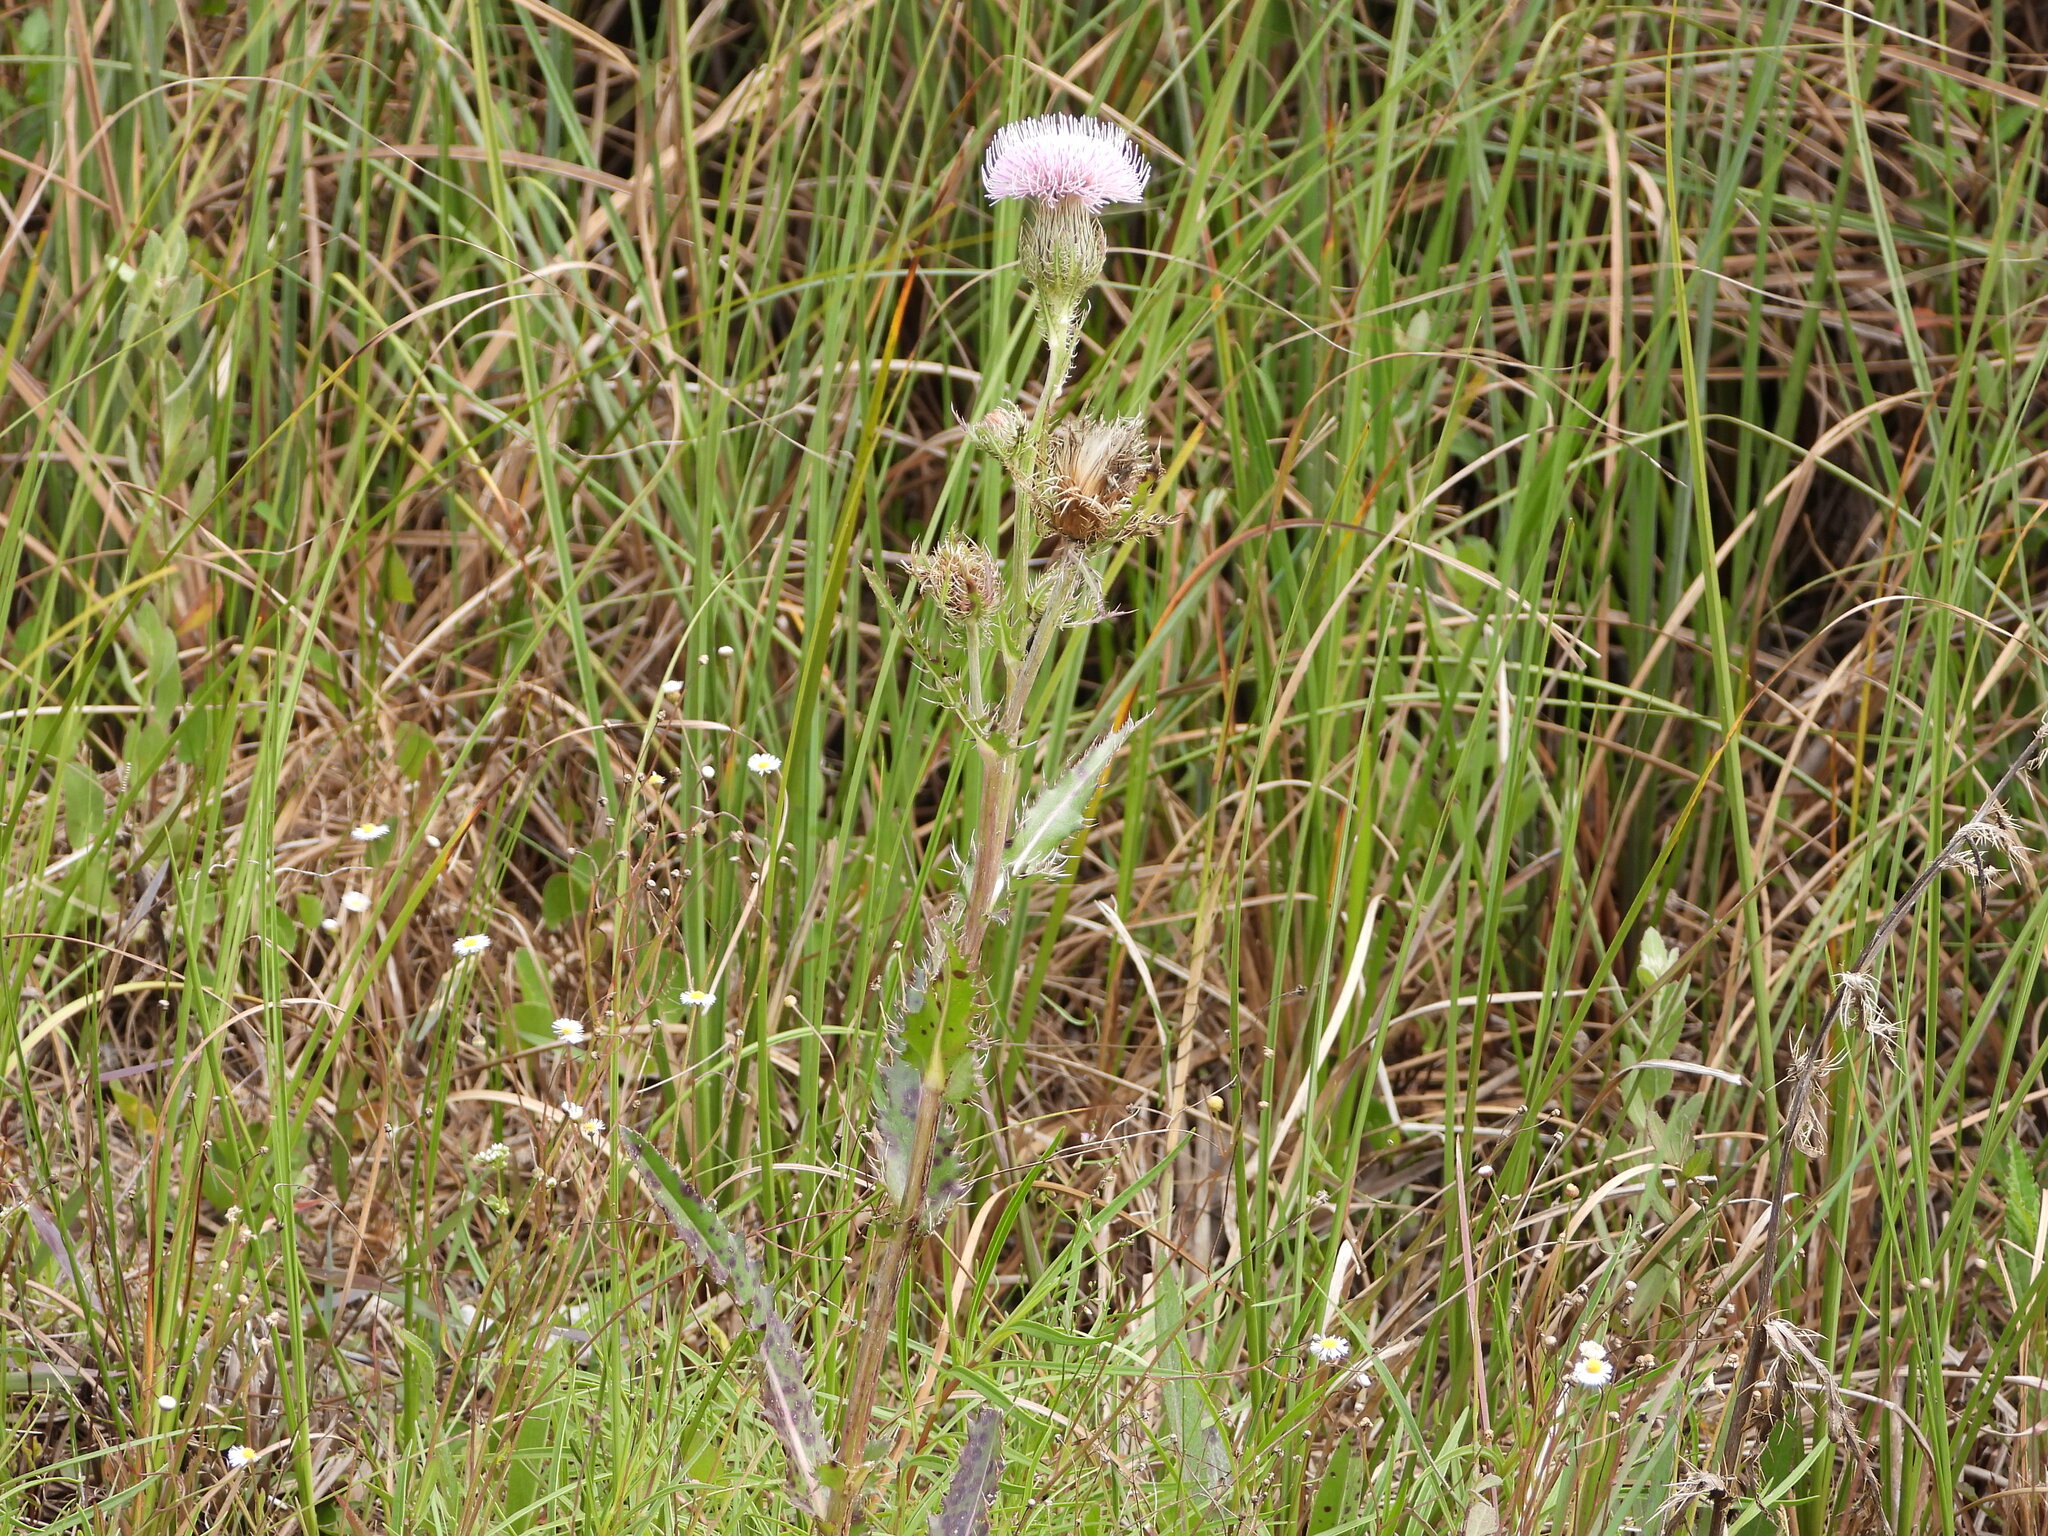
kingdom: Plantae
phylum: Tracheophyta
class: Magnoliopsida
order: Asterales
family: Asteraceae
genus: Cirsium
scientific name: Cirsium horridulum
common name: Bristly thistle
